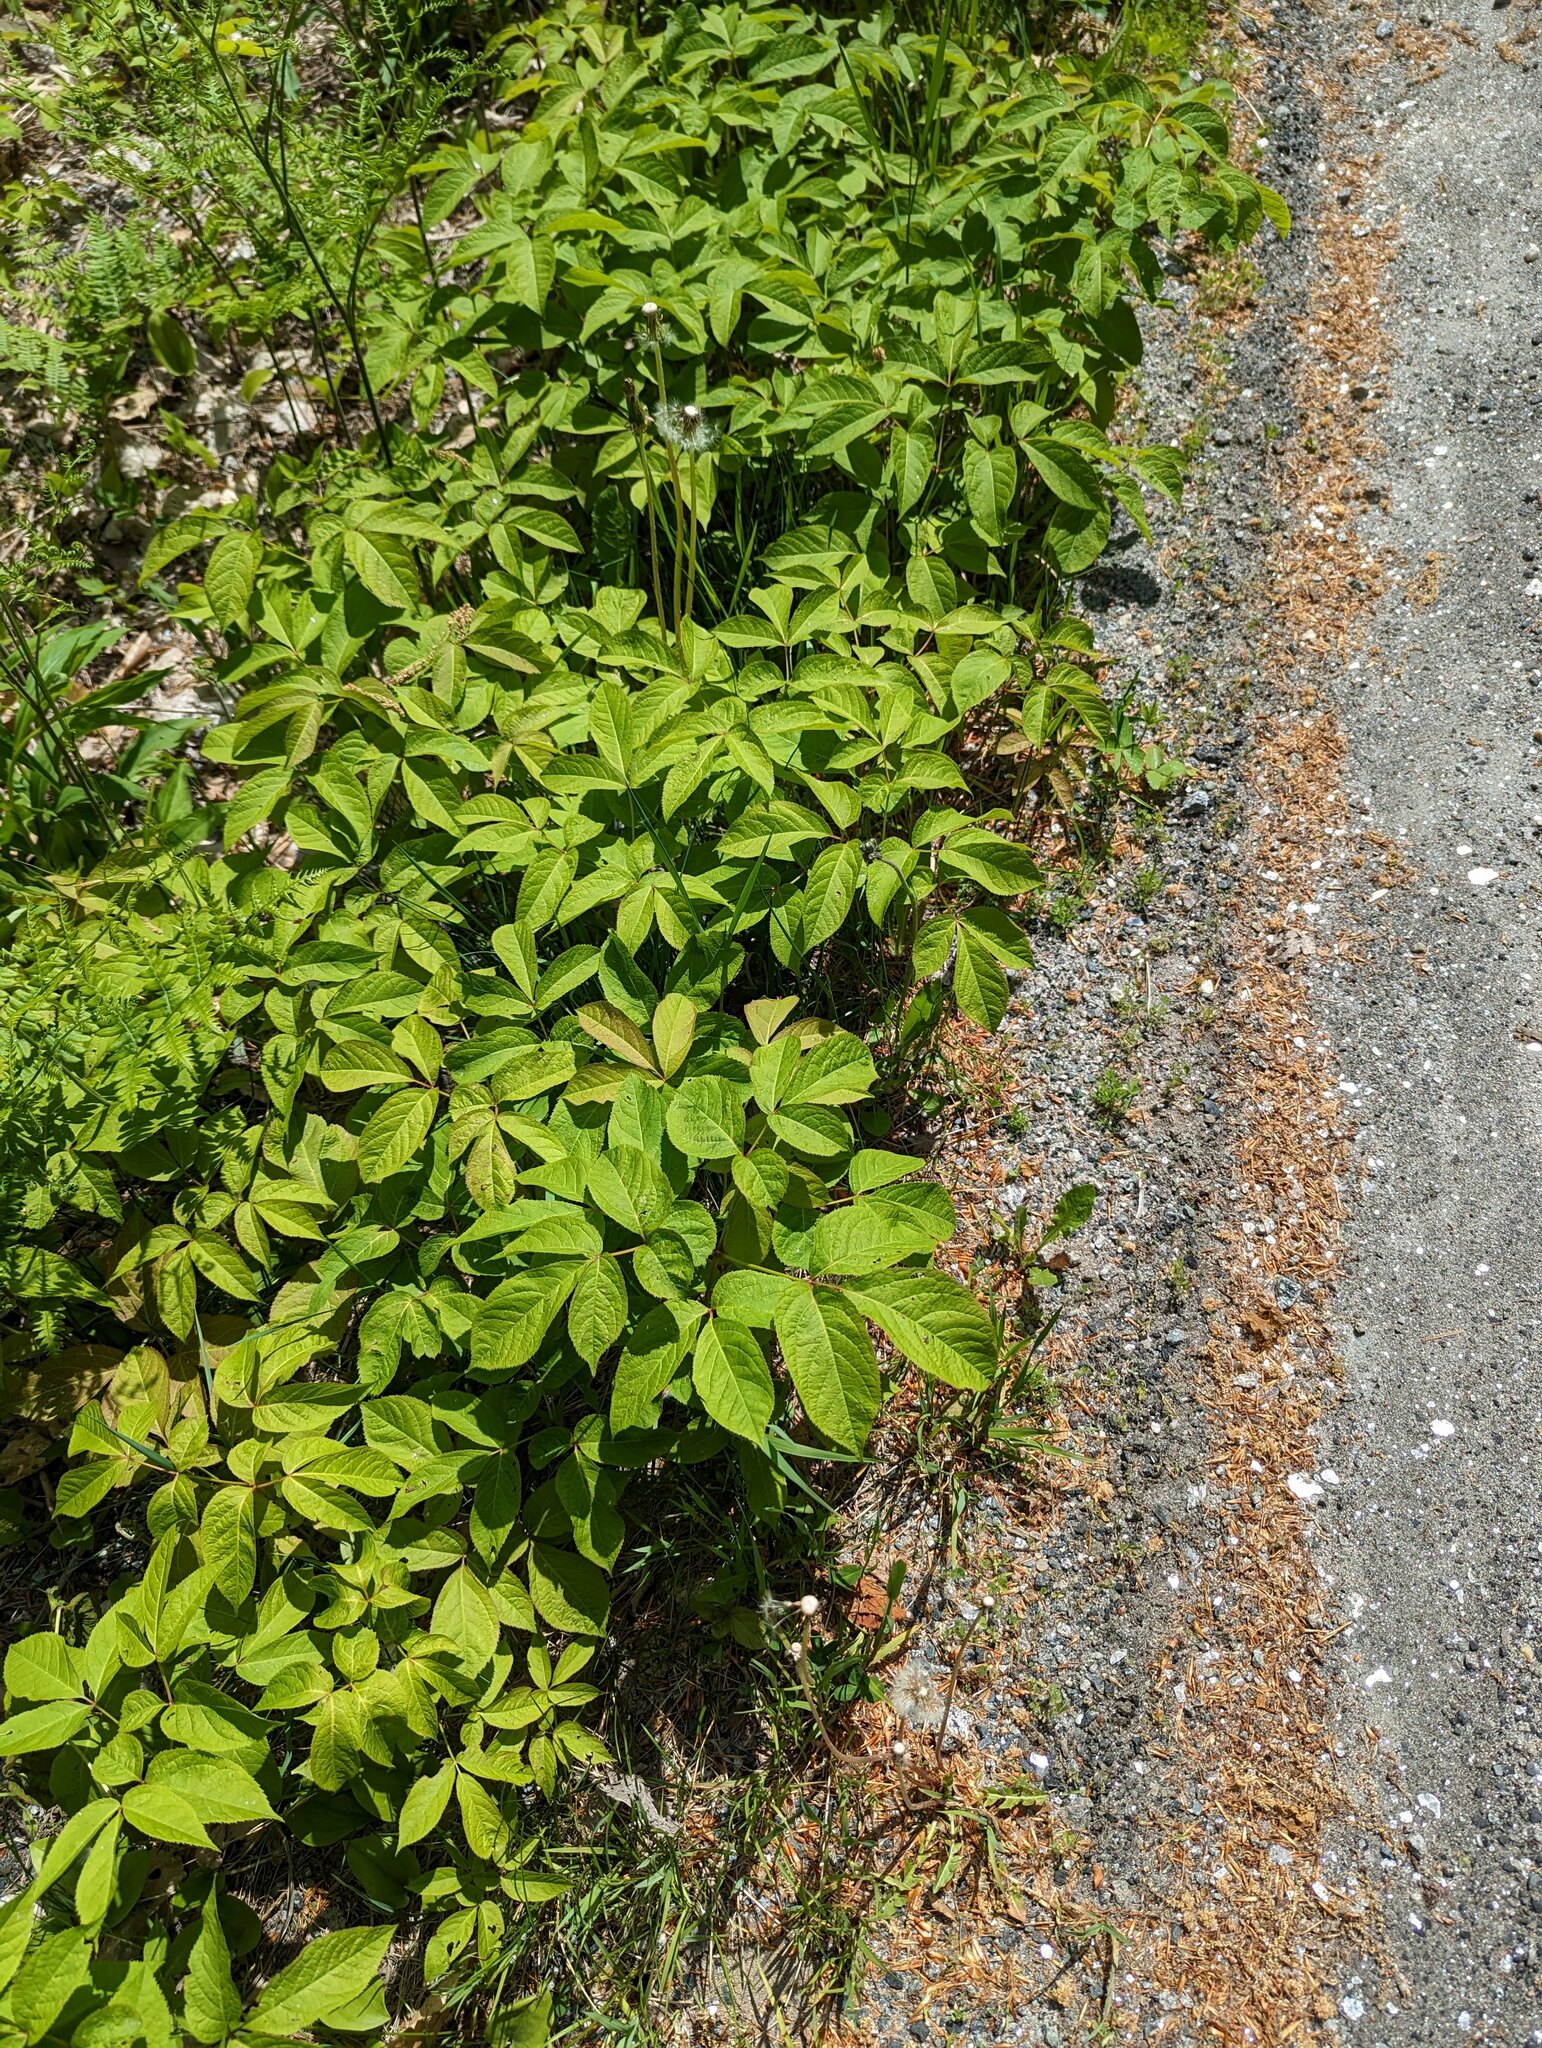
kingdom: Plantae
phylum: Tracheophyta
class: Magnoliopsida
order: Apiales
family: Araliaceae
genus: Aralia
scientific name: Aralia nudicaulis
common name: Wild sarsaparilla
